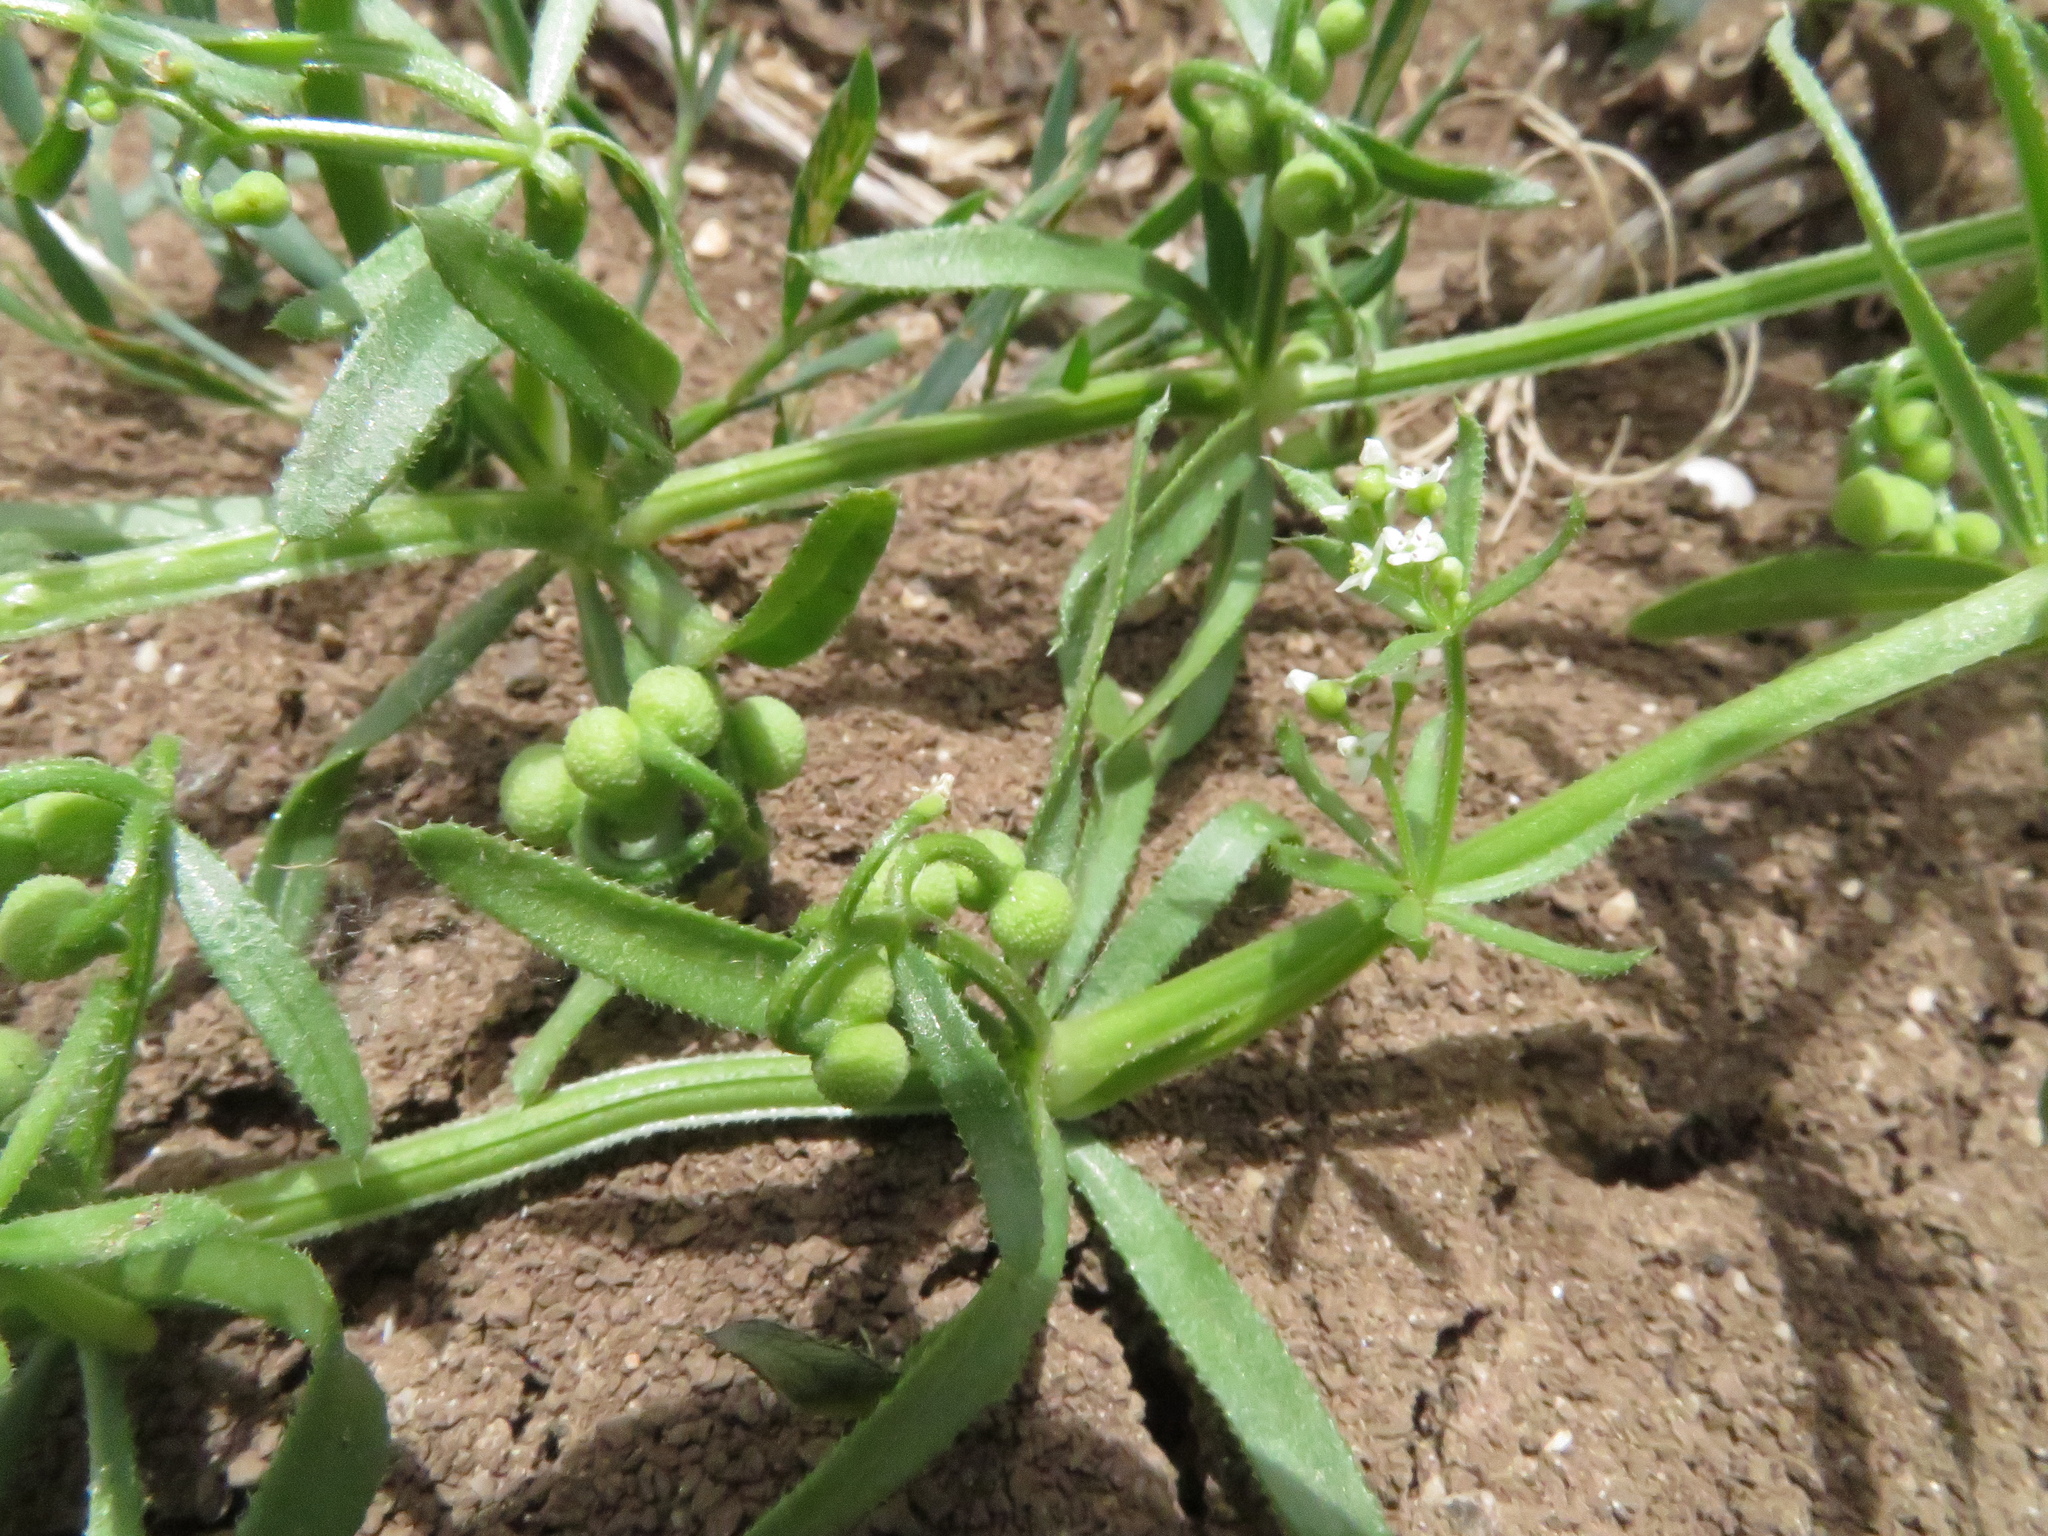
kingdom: Plantae
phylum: Tracheophyta
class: Magnoliopsida
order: Gentianales
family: Rubiaceae
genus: Galium
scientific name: Galium tricornutum
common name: Corn cleavers
